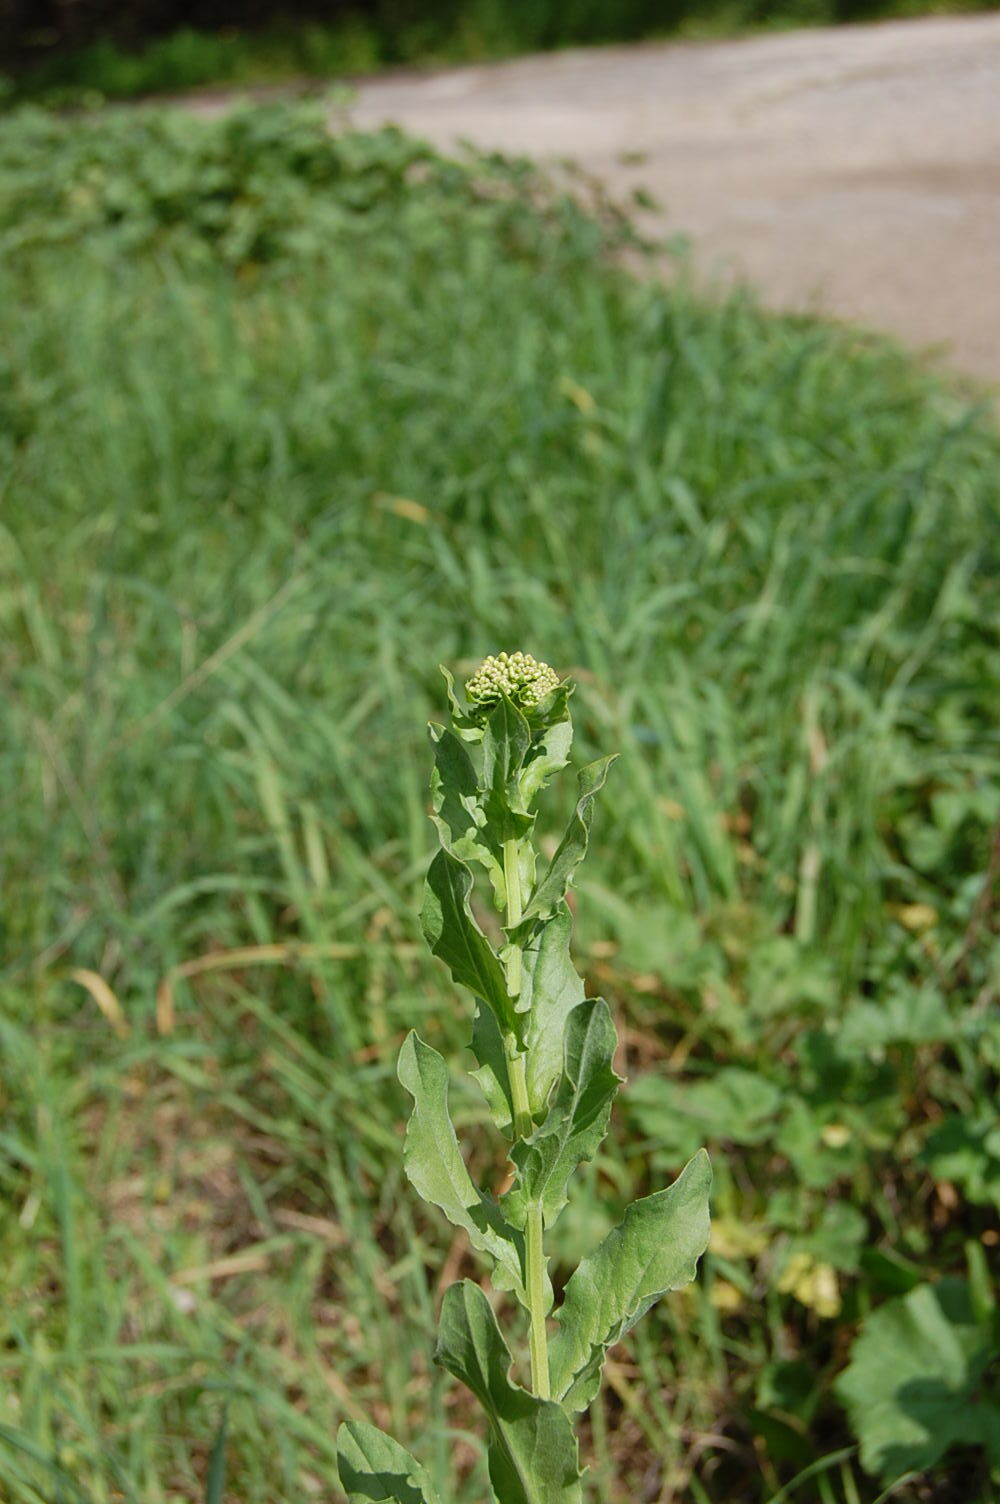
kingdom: Plantae
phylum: Tracheophyta
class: Magnoliopsida
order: Brassicales
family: Brassicaceae
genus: Lepidium
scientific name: Lepidium draba
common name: Hoary cress
